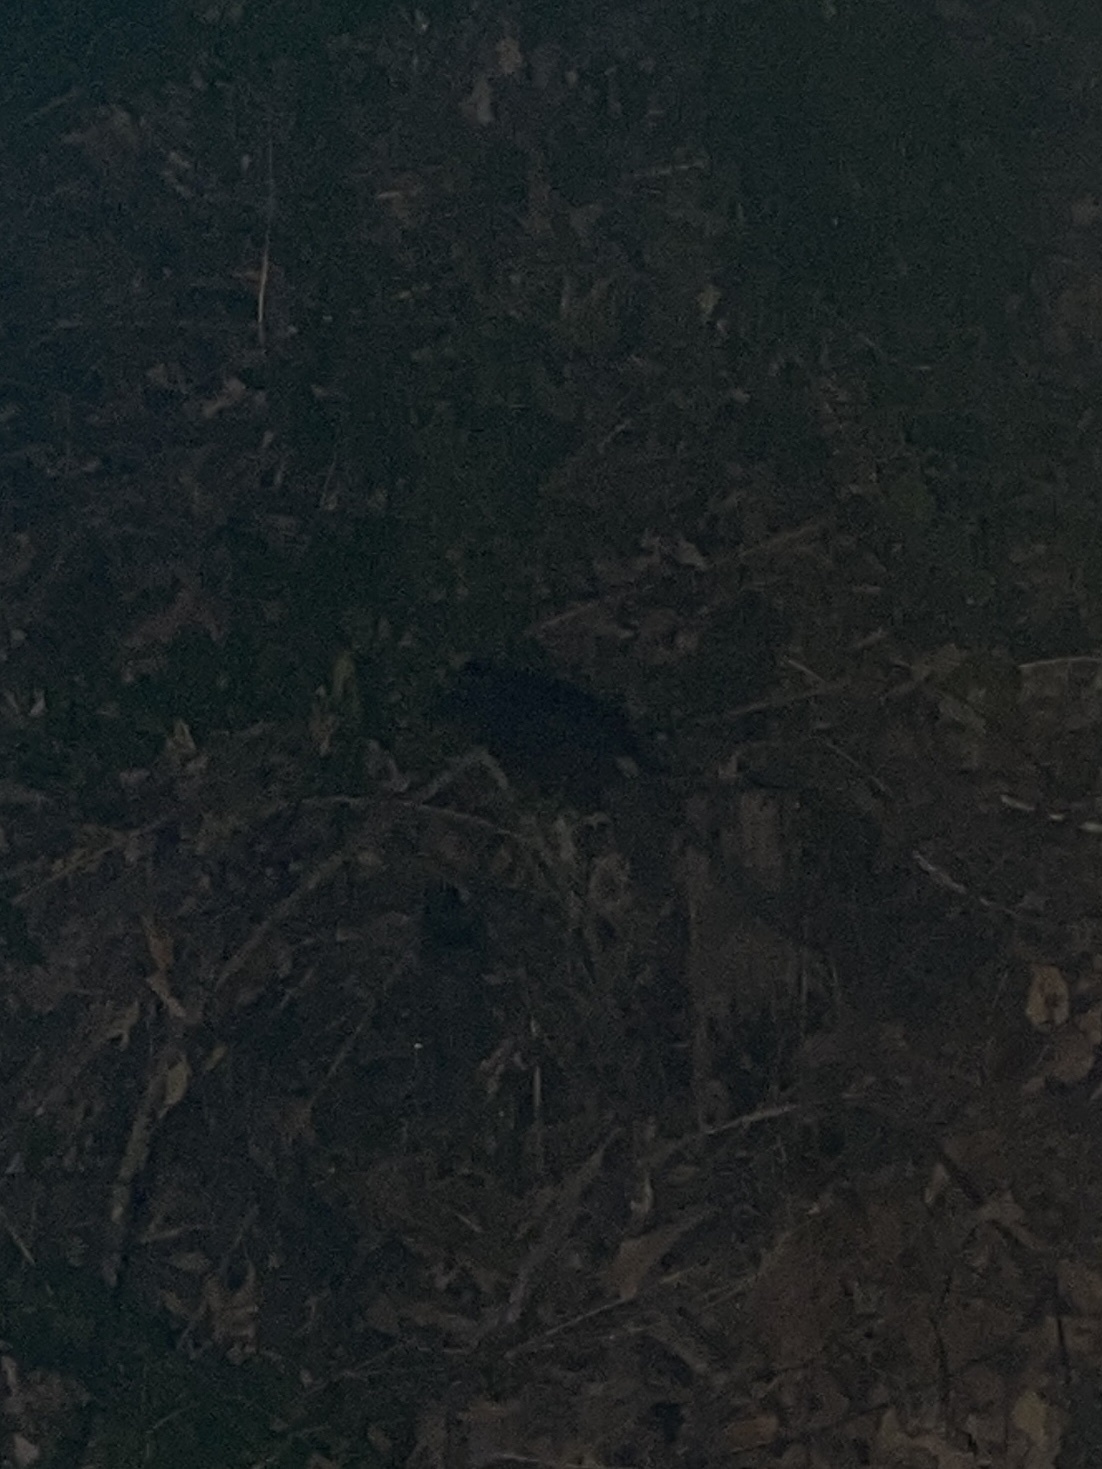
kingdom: Animalia
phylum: Chordata
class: Mammalia
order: Rodentia
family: Muridae
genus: Rattus
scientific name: Rattus rattus
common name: Black rat
